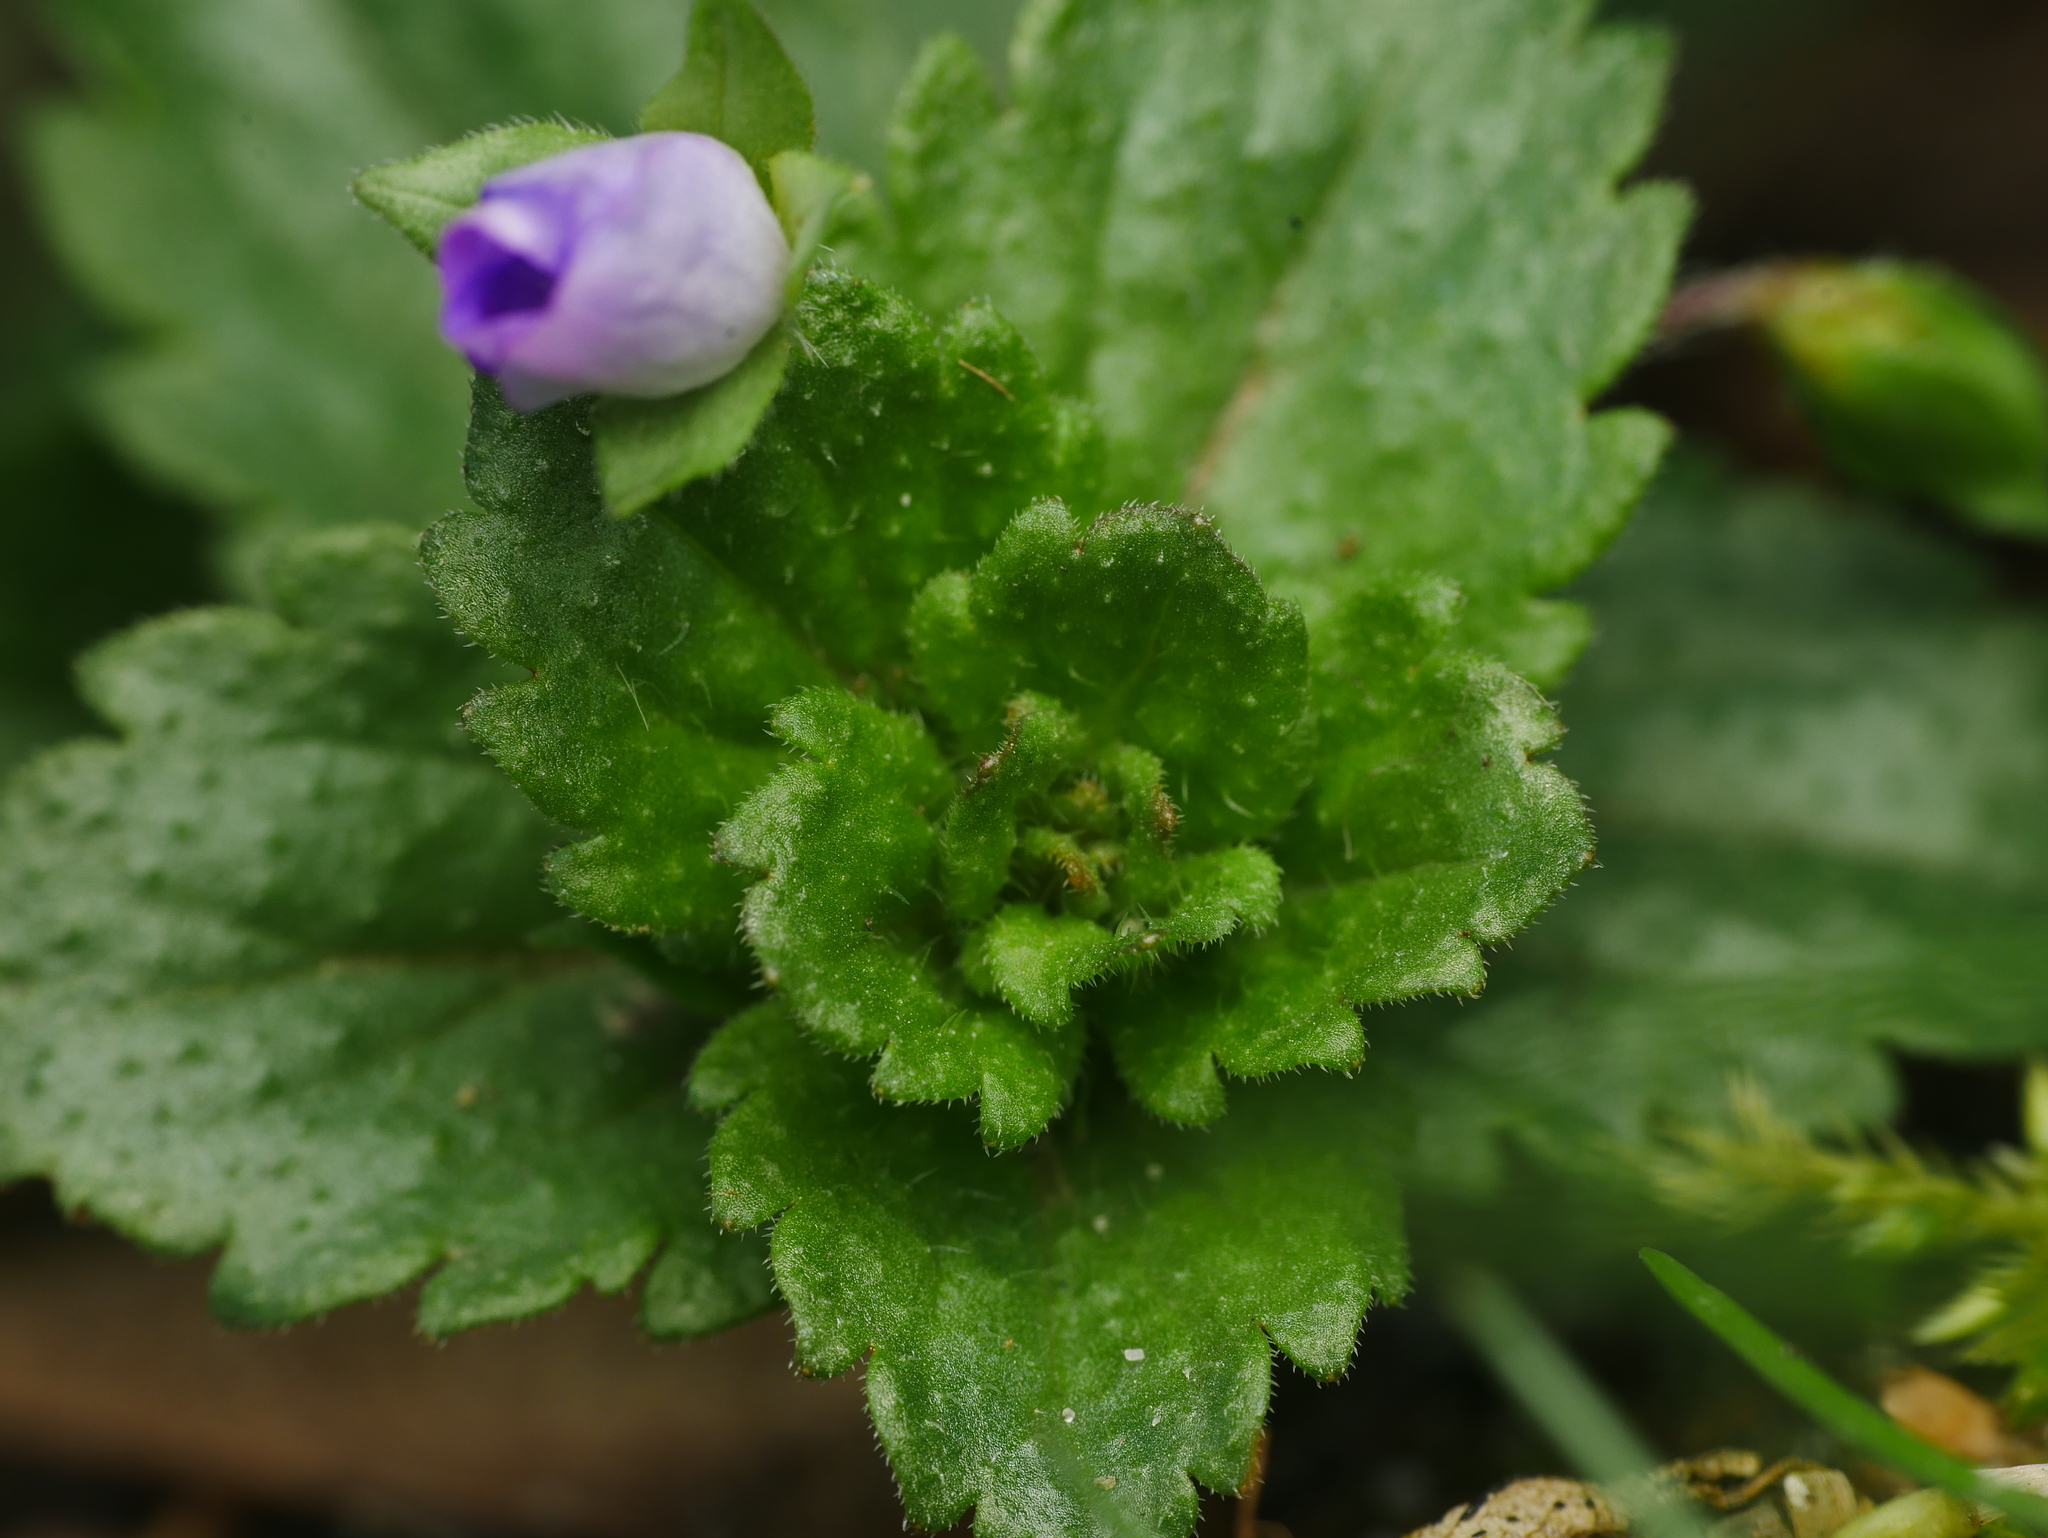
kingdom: Plantae
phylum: Tracheophyta
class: Magnoliopsida
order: Lamiales
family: Plantaginaceae
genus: Veronica
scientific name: Veronica persica
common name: Common field-speedwell
